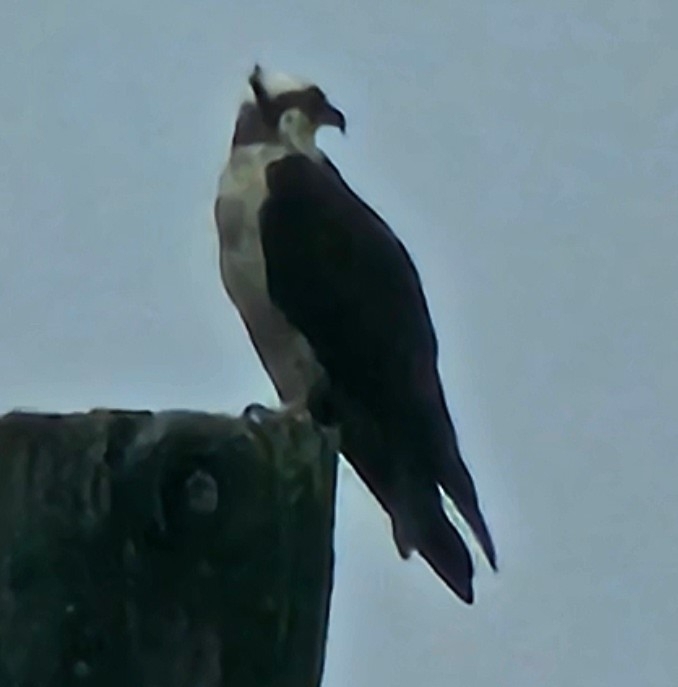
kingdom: Animalia
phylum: Chordata
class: Aves
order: Accipitriformes
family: Pandionidae
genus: Pandion
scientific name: Pandion haliaetus
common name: Osprey
